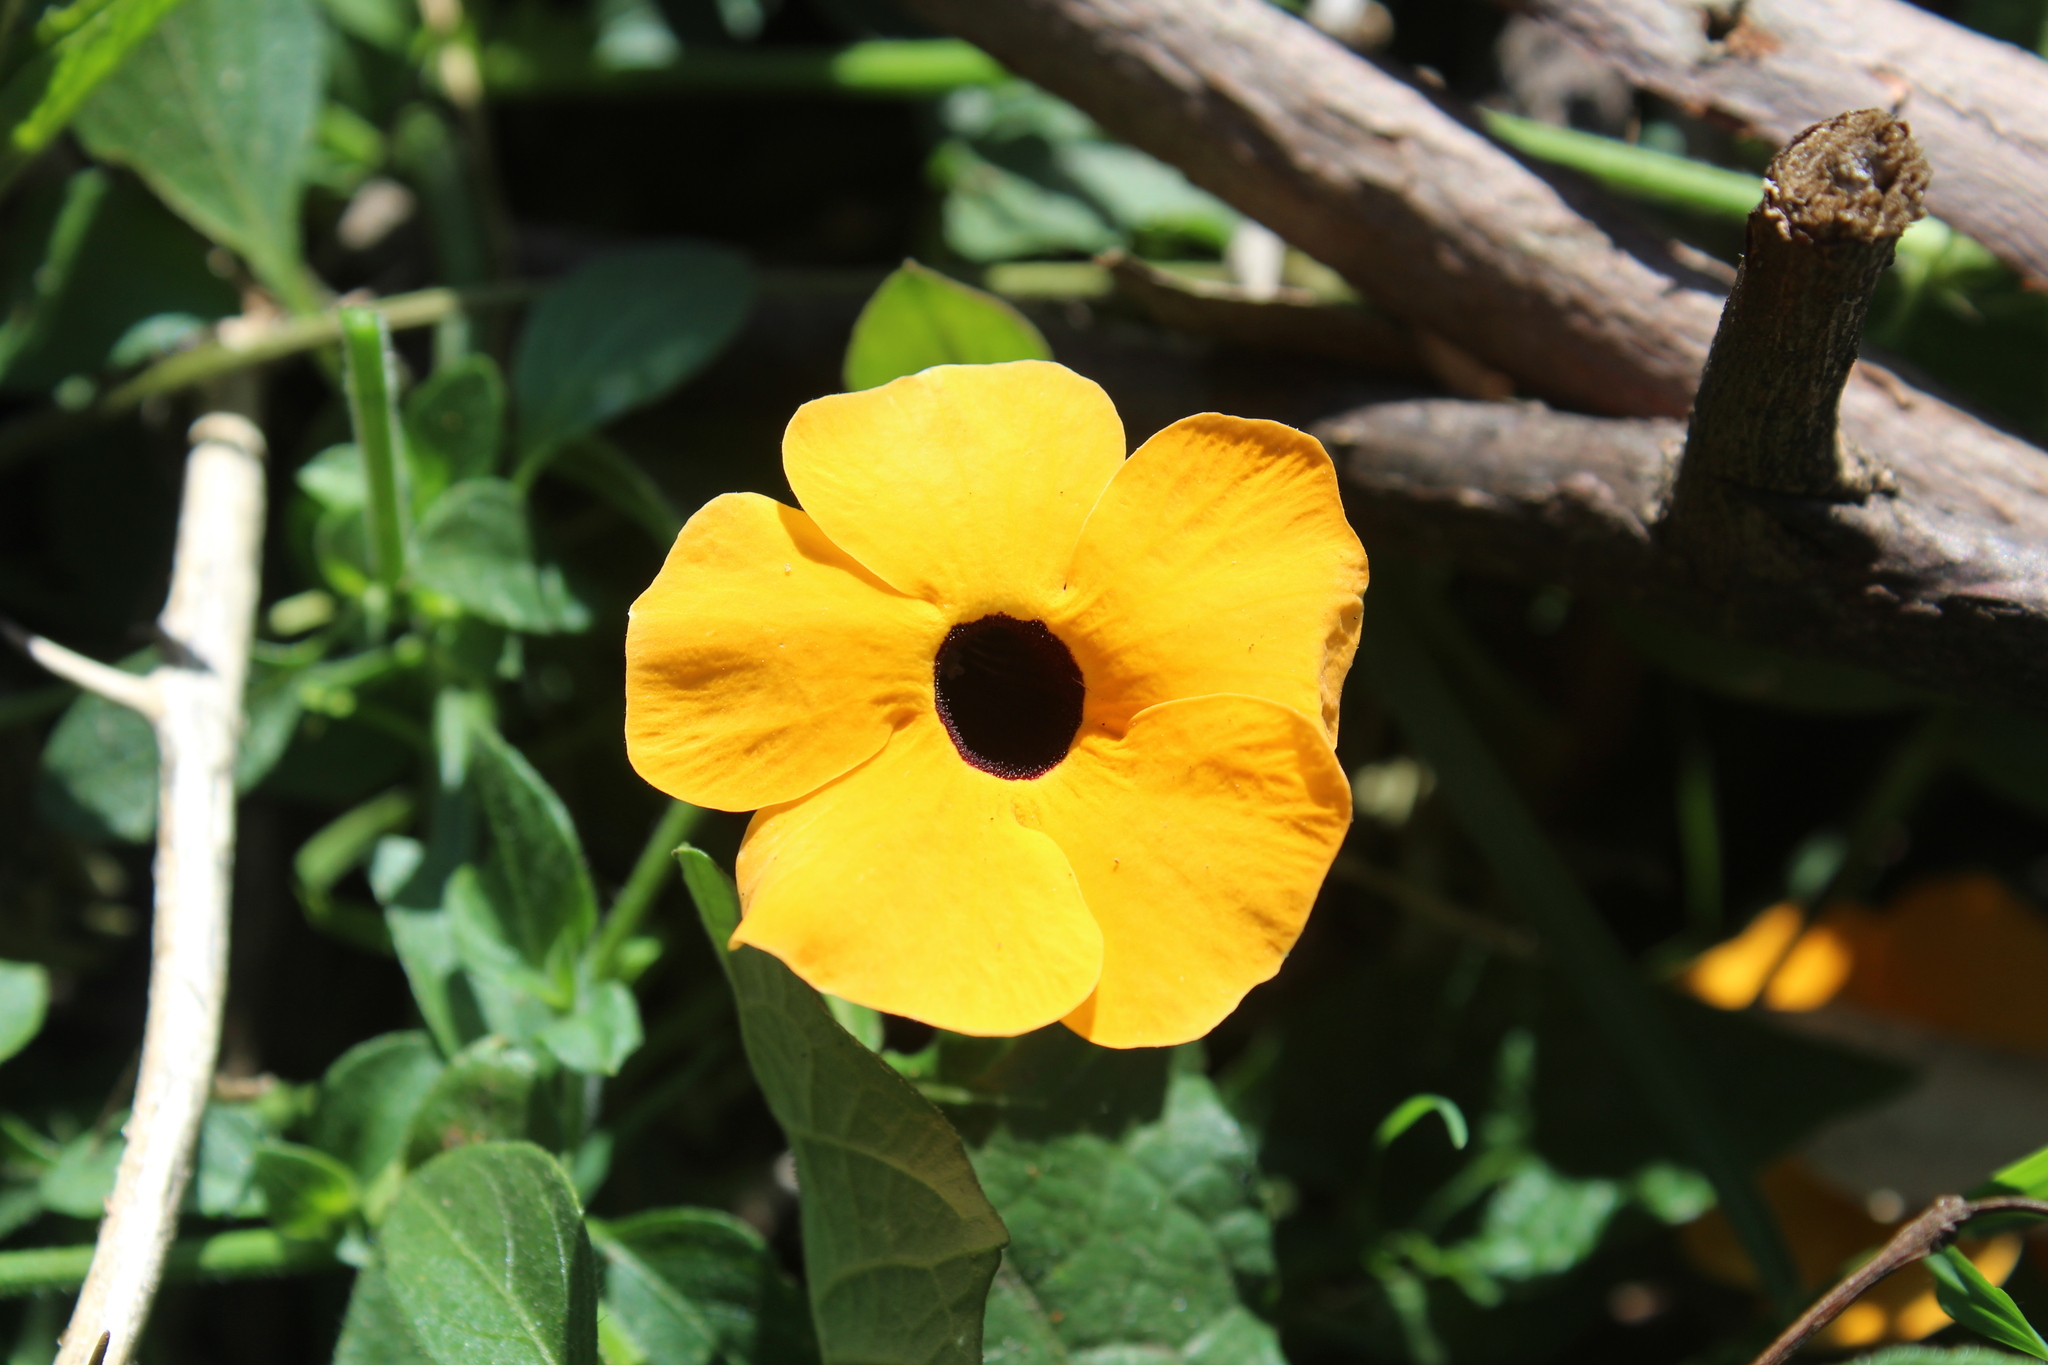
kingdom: Plantae
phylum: Tracheophyta
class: Magnoliopsida
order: Lamiales
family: Acanthaceae
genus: Thunbergia
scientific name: Thunbergia alata
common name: Blackeyed susan vine
